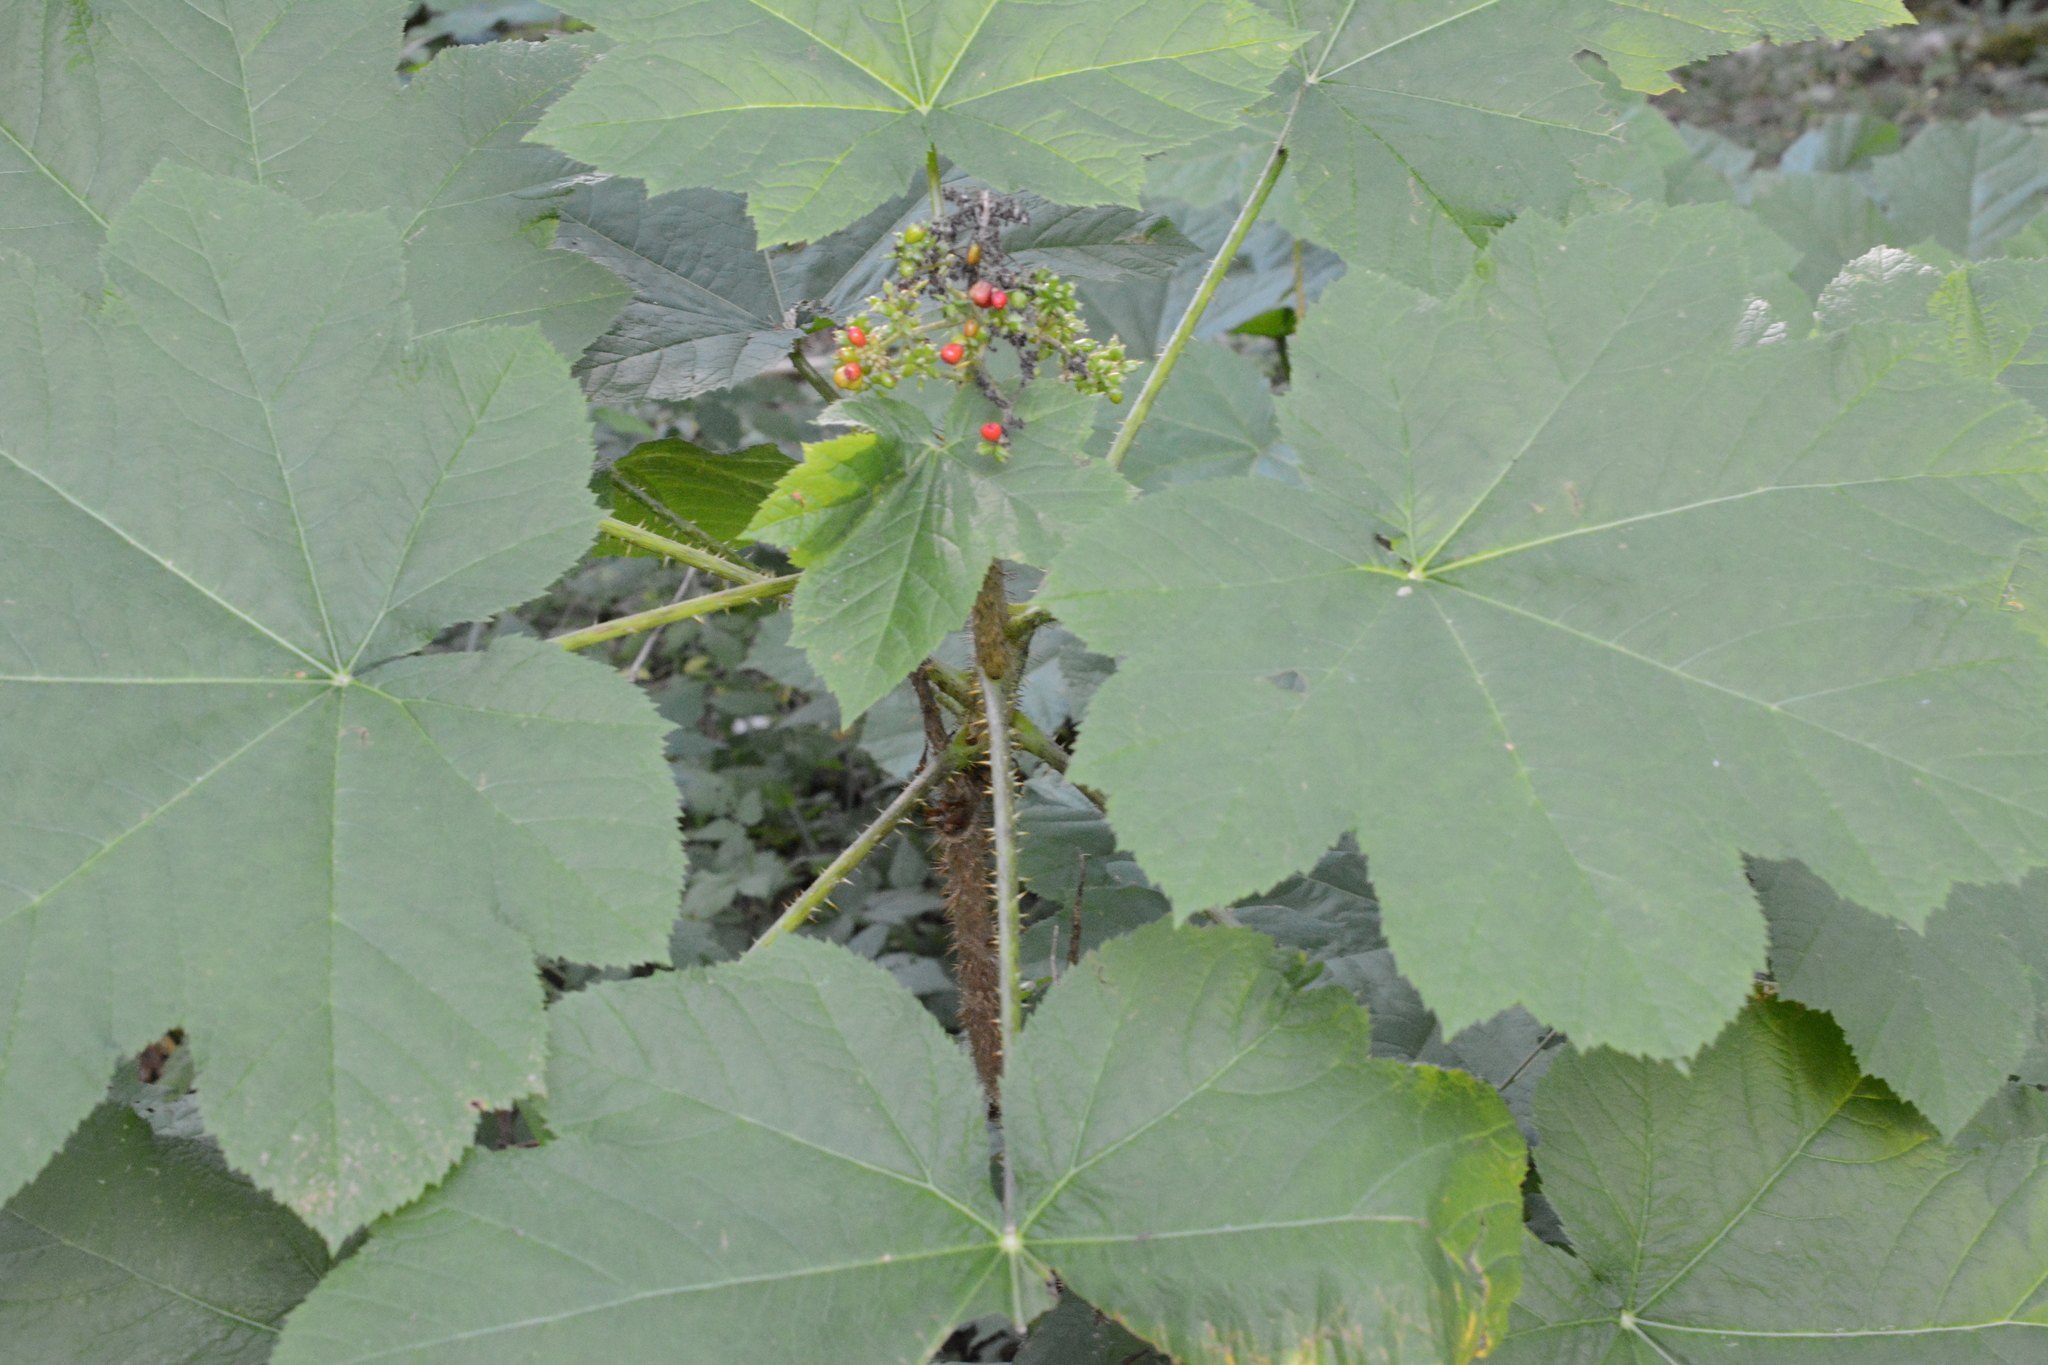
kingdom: Plantae
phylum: Tracheophyta
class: Magnoliopsida
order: Apiales
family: Araliaceae
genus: Oplopanax
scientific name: Oplopanax horridus
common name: Devil's walking-stick
